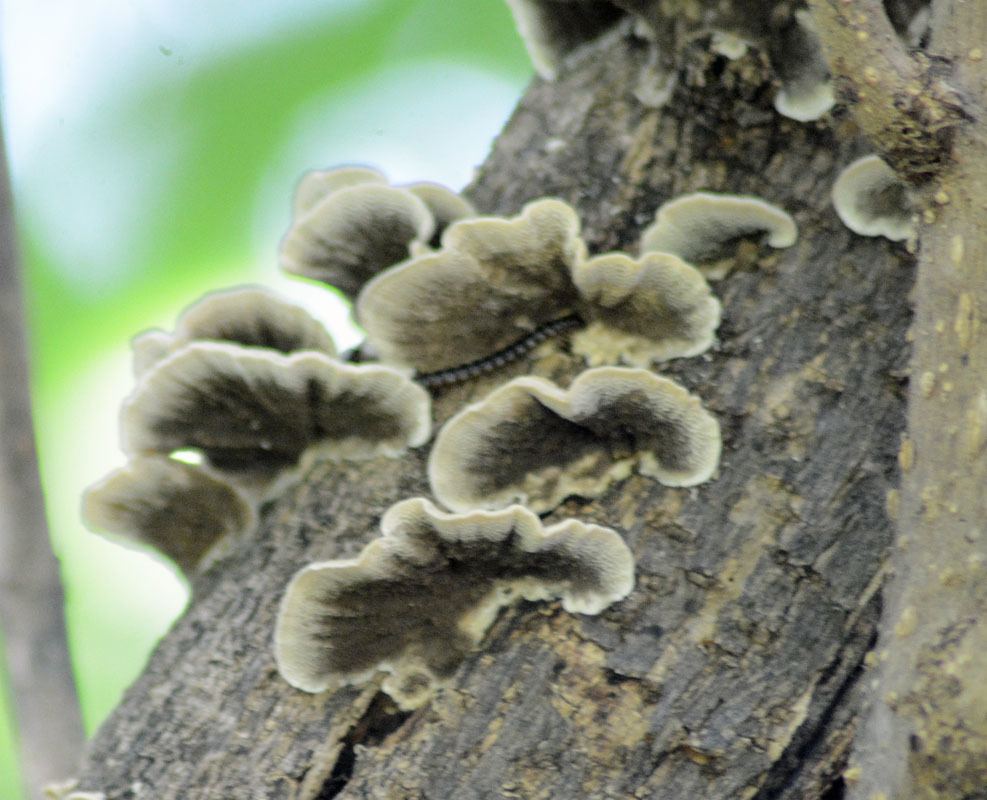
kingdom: Fungi
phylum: Basidiomycota
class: Agaricomycetes
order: Polyporales
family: Polyporaceae
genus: Trametes
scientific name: Trametes hirsuta
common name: Hairy bracket
